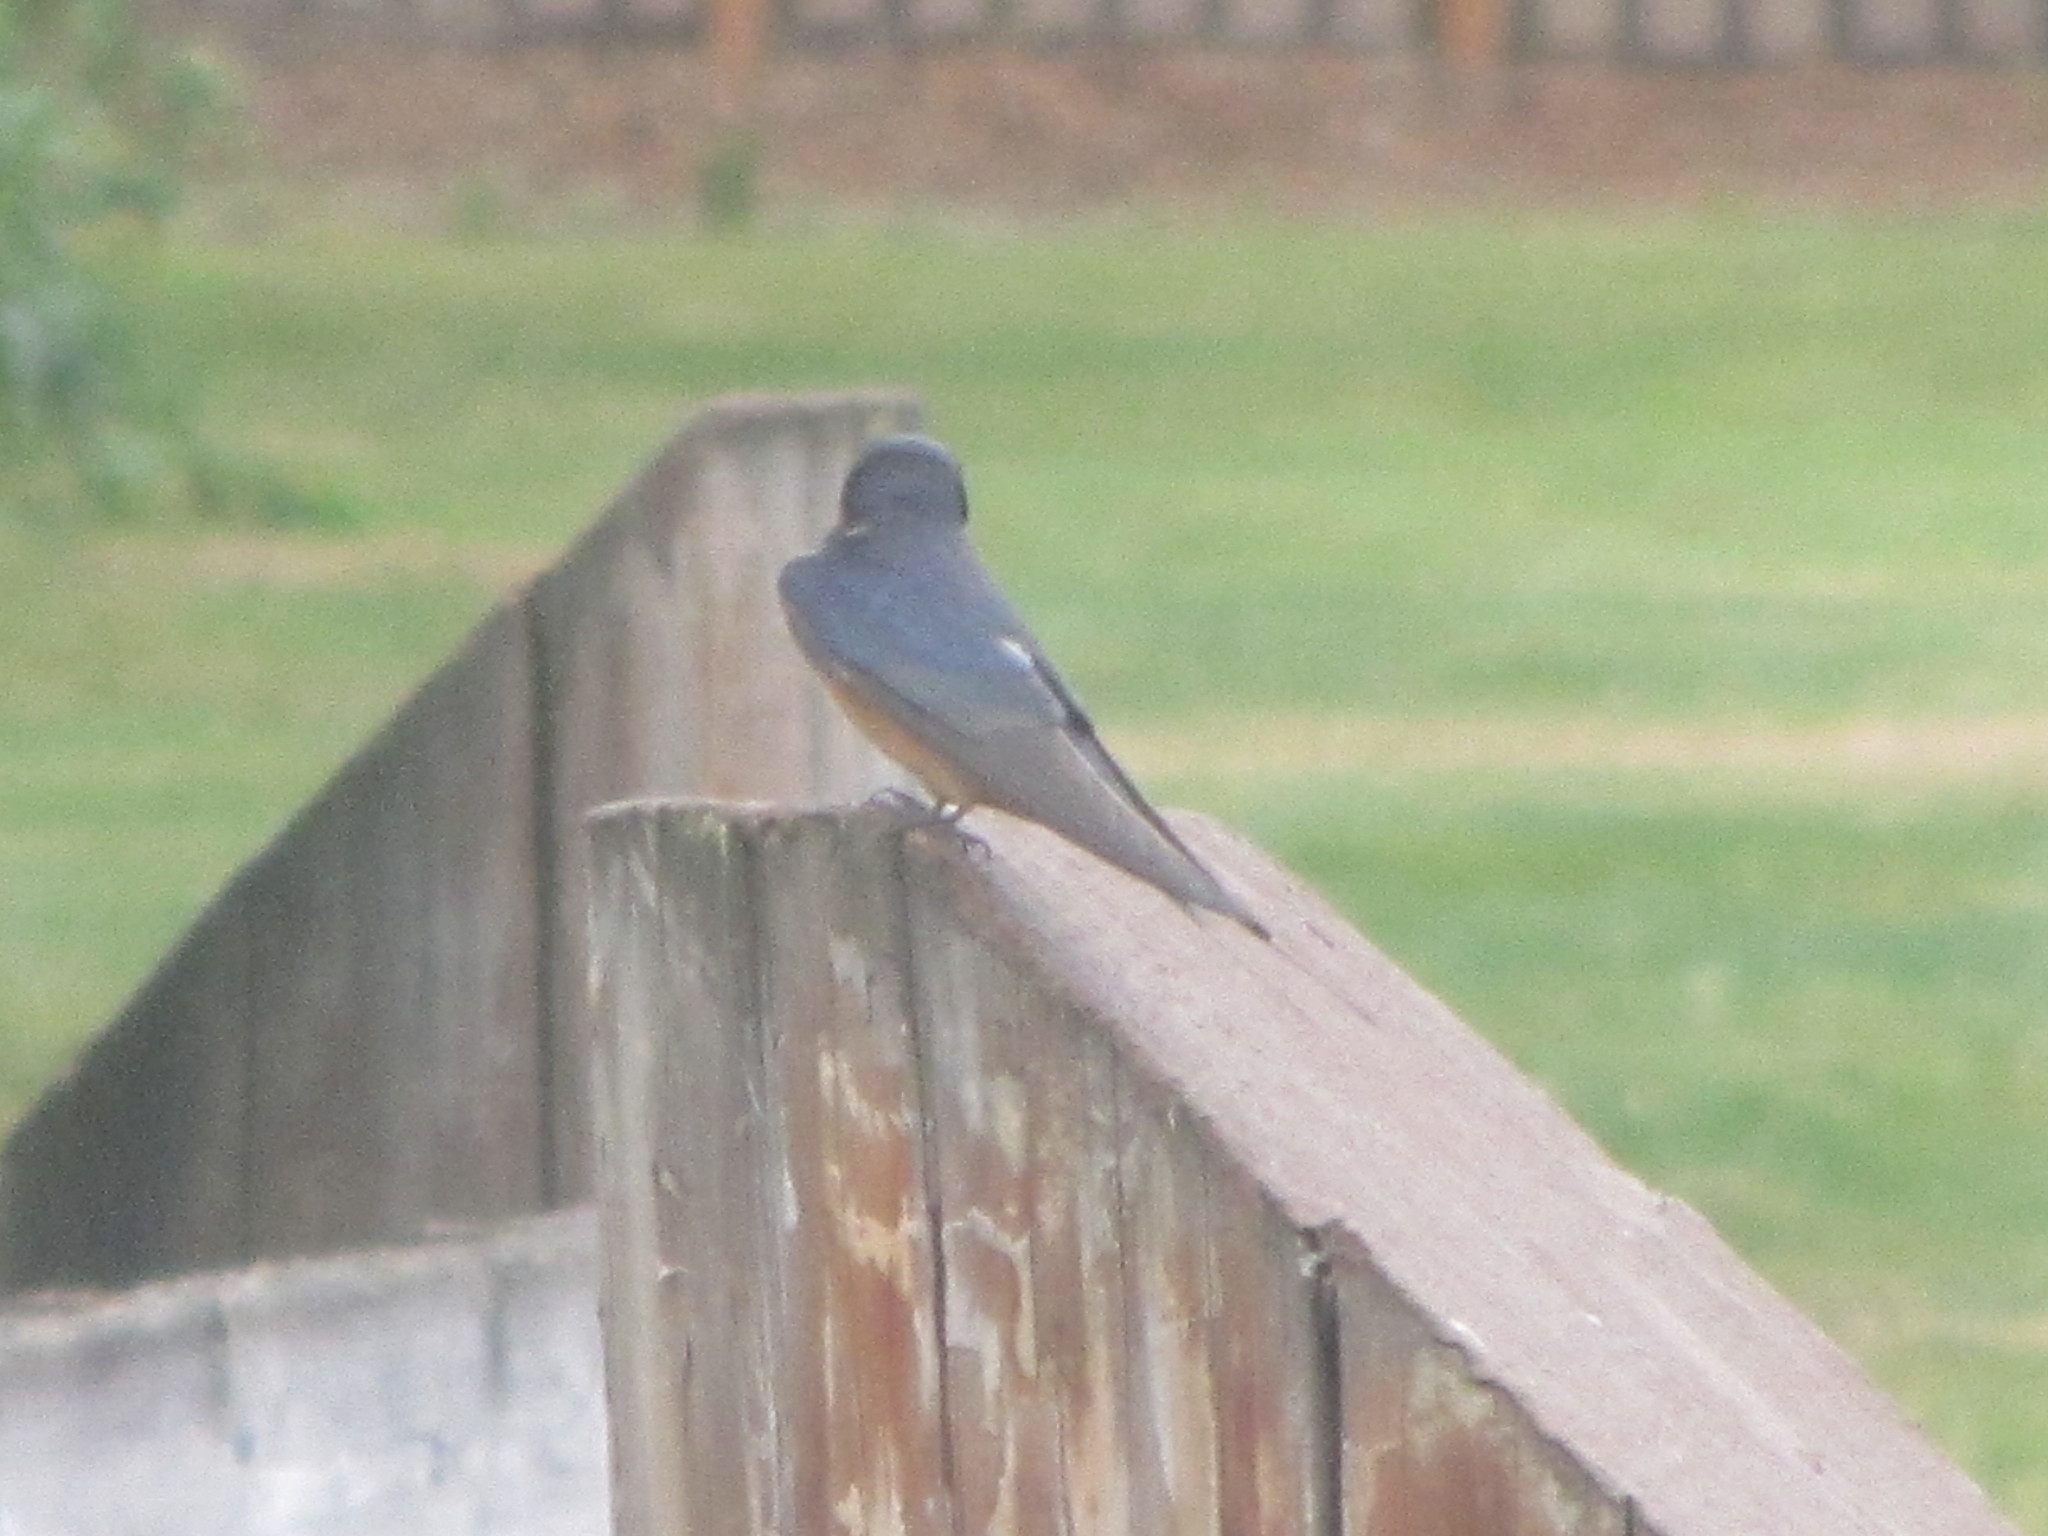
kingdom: Animalia
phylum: Chordata
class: Aves
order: Passeriformes
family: Hirundinidae
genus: Hirundo
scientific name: Hirundo rustica
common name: Barn swallow
